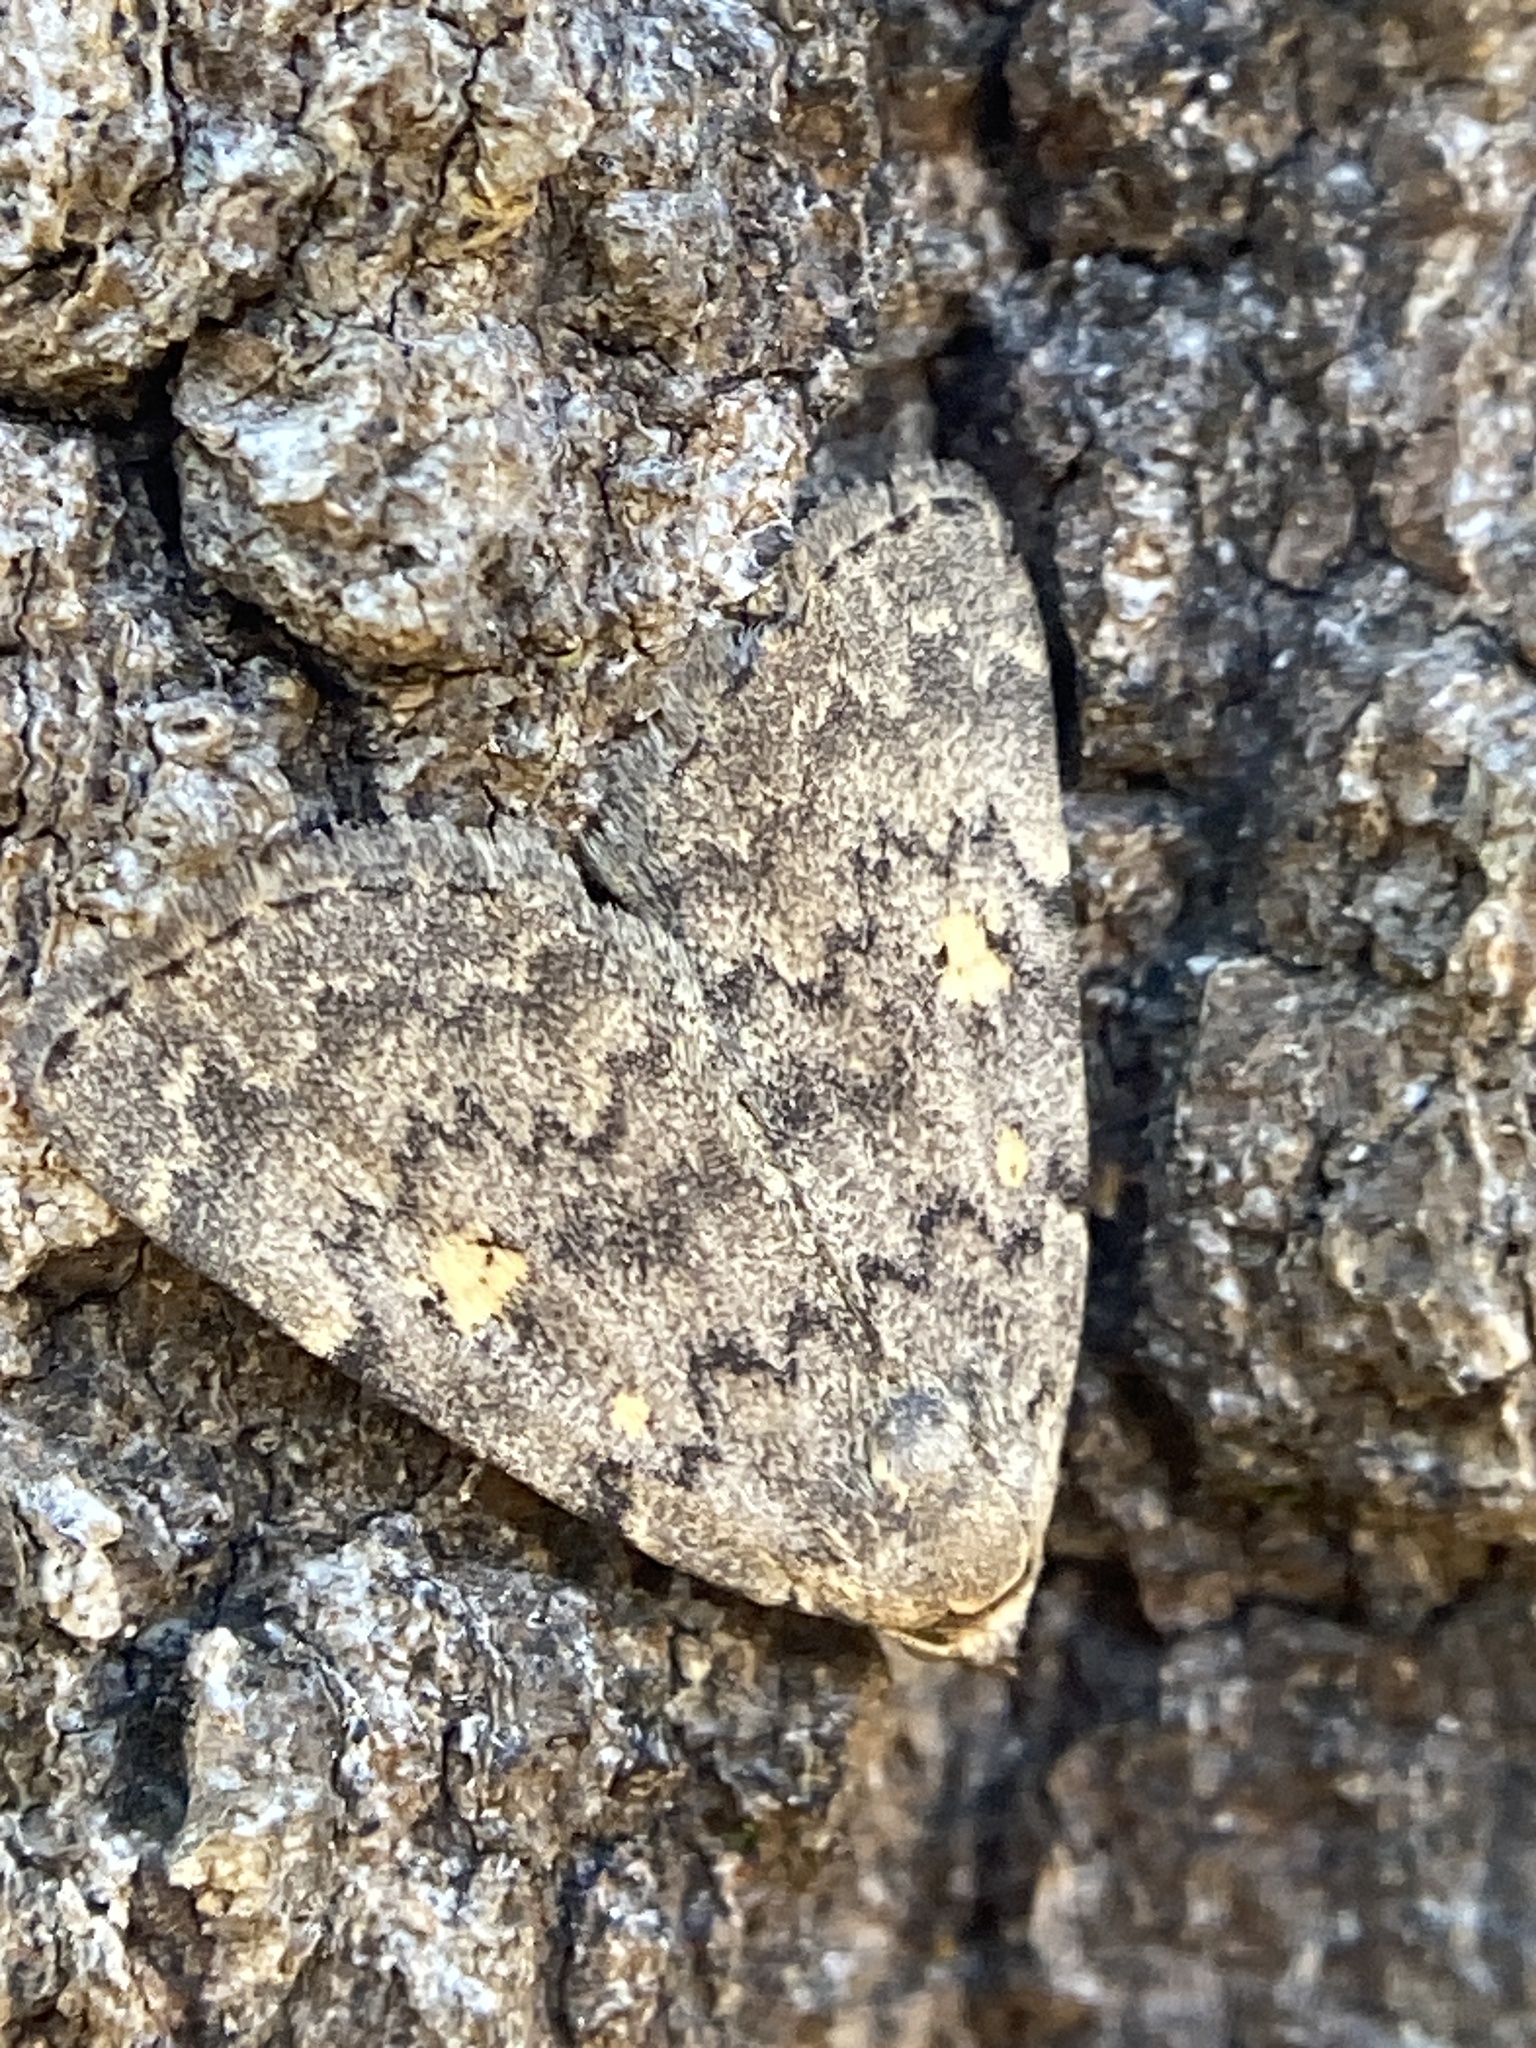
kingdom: Animalia
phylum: Arthropoda
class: Insecta
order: Lepidoptera
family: Erebidae
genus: Idia
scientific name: Idia aemula
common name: Common idia moth
